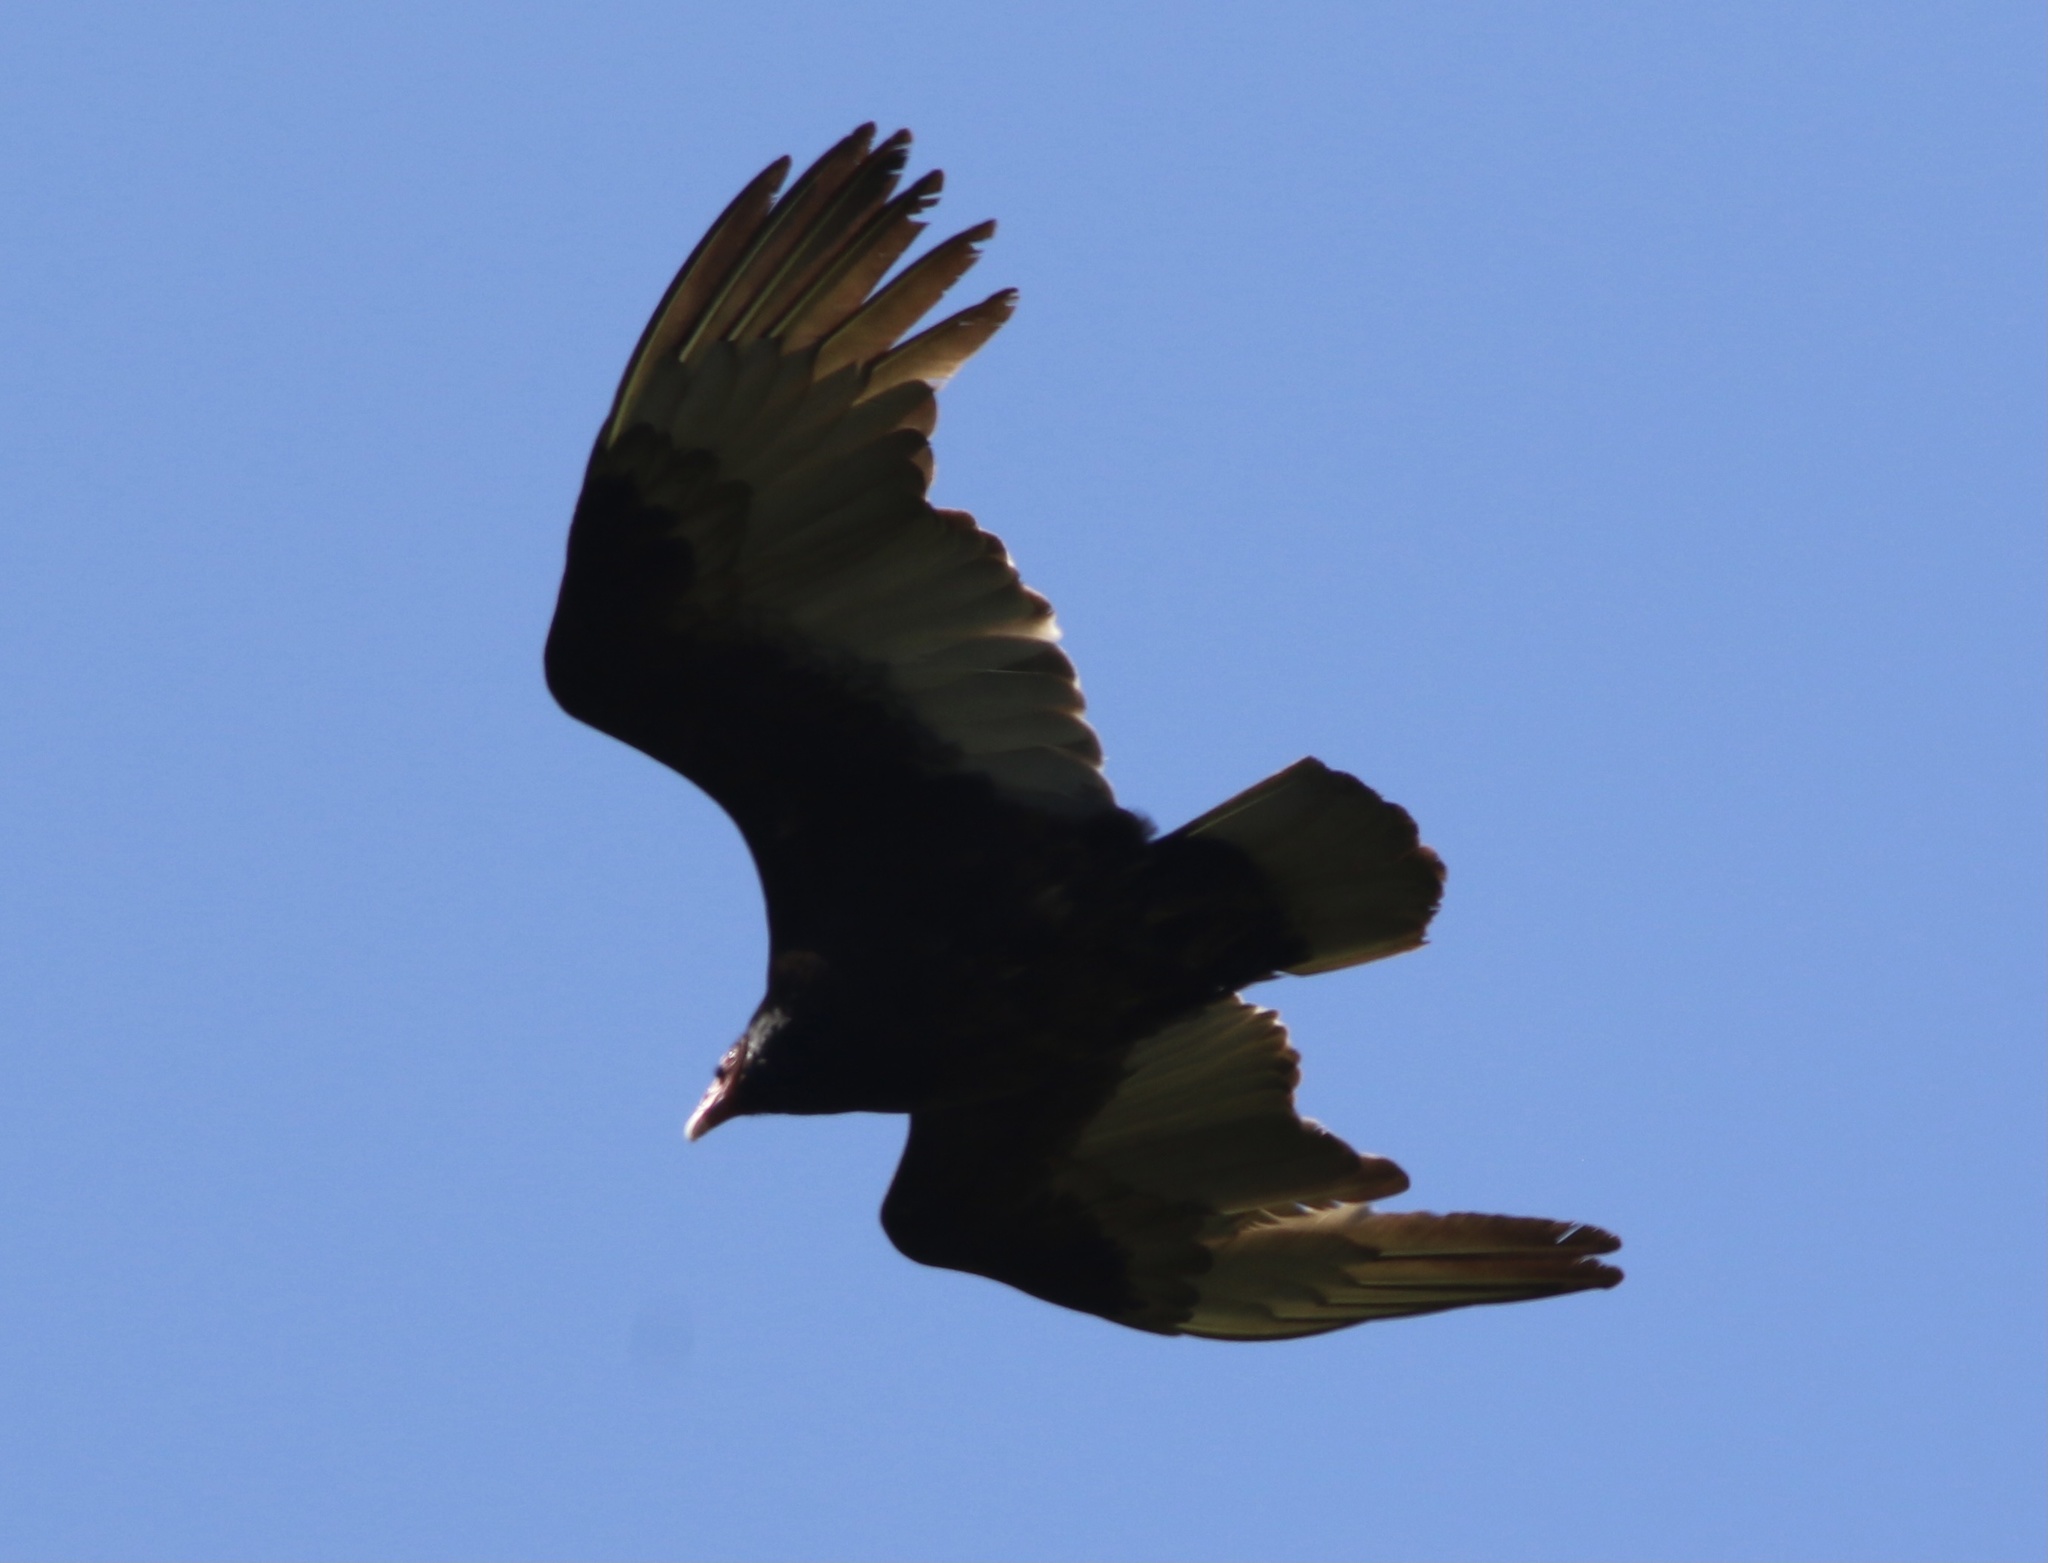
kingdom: Animalia
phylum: Chordata
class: Aves
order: Accipitriformes
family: Cathartidae
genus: Cathartes
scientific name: Cathartes aura
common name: Turkey vulture
